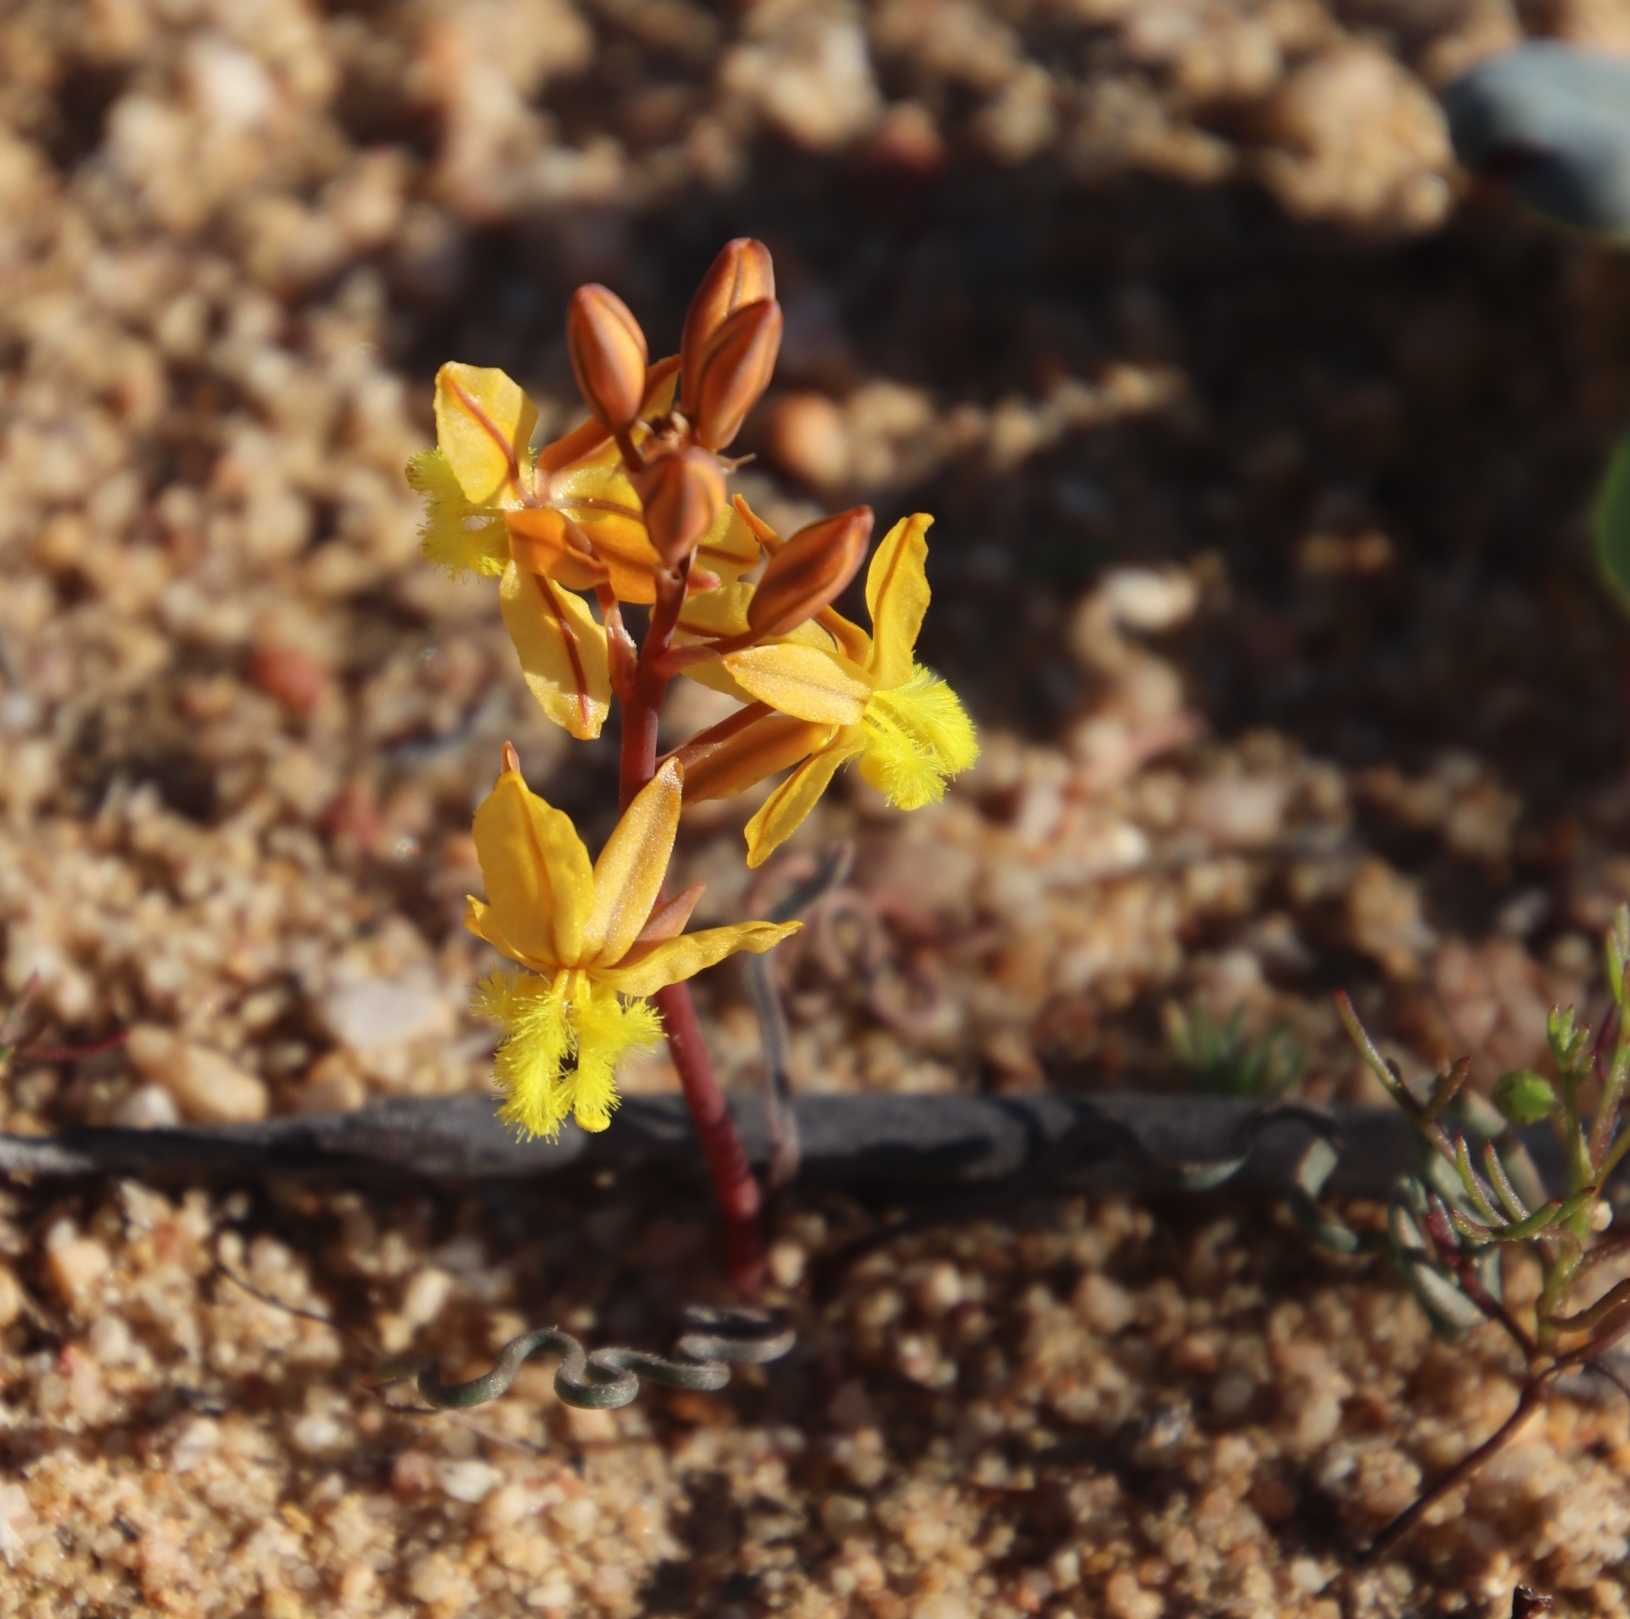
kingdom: Plantae
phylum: Tracheophyta
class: Liliopsida
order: Asparagales
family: Asphodelaceae
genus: Bulbine
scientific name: Bulbine torta
